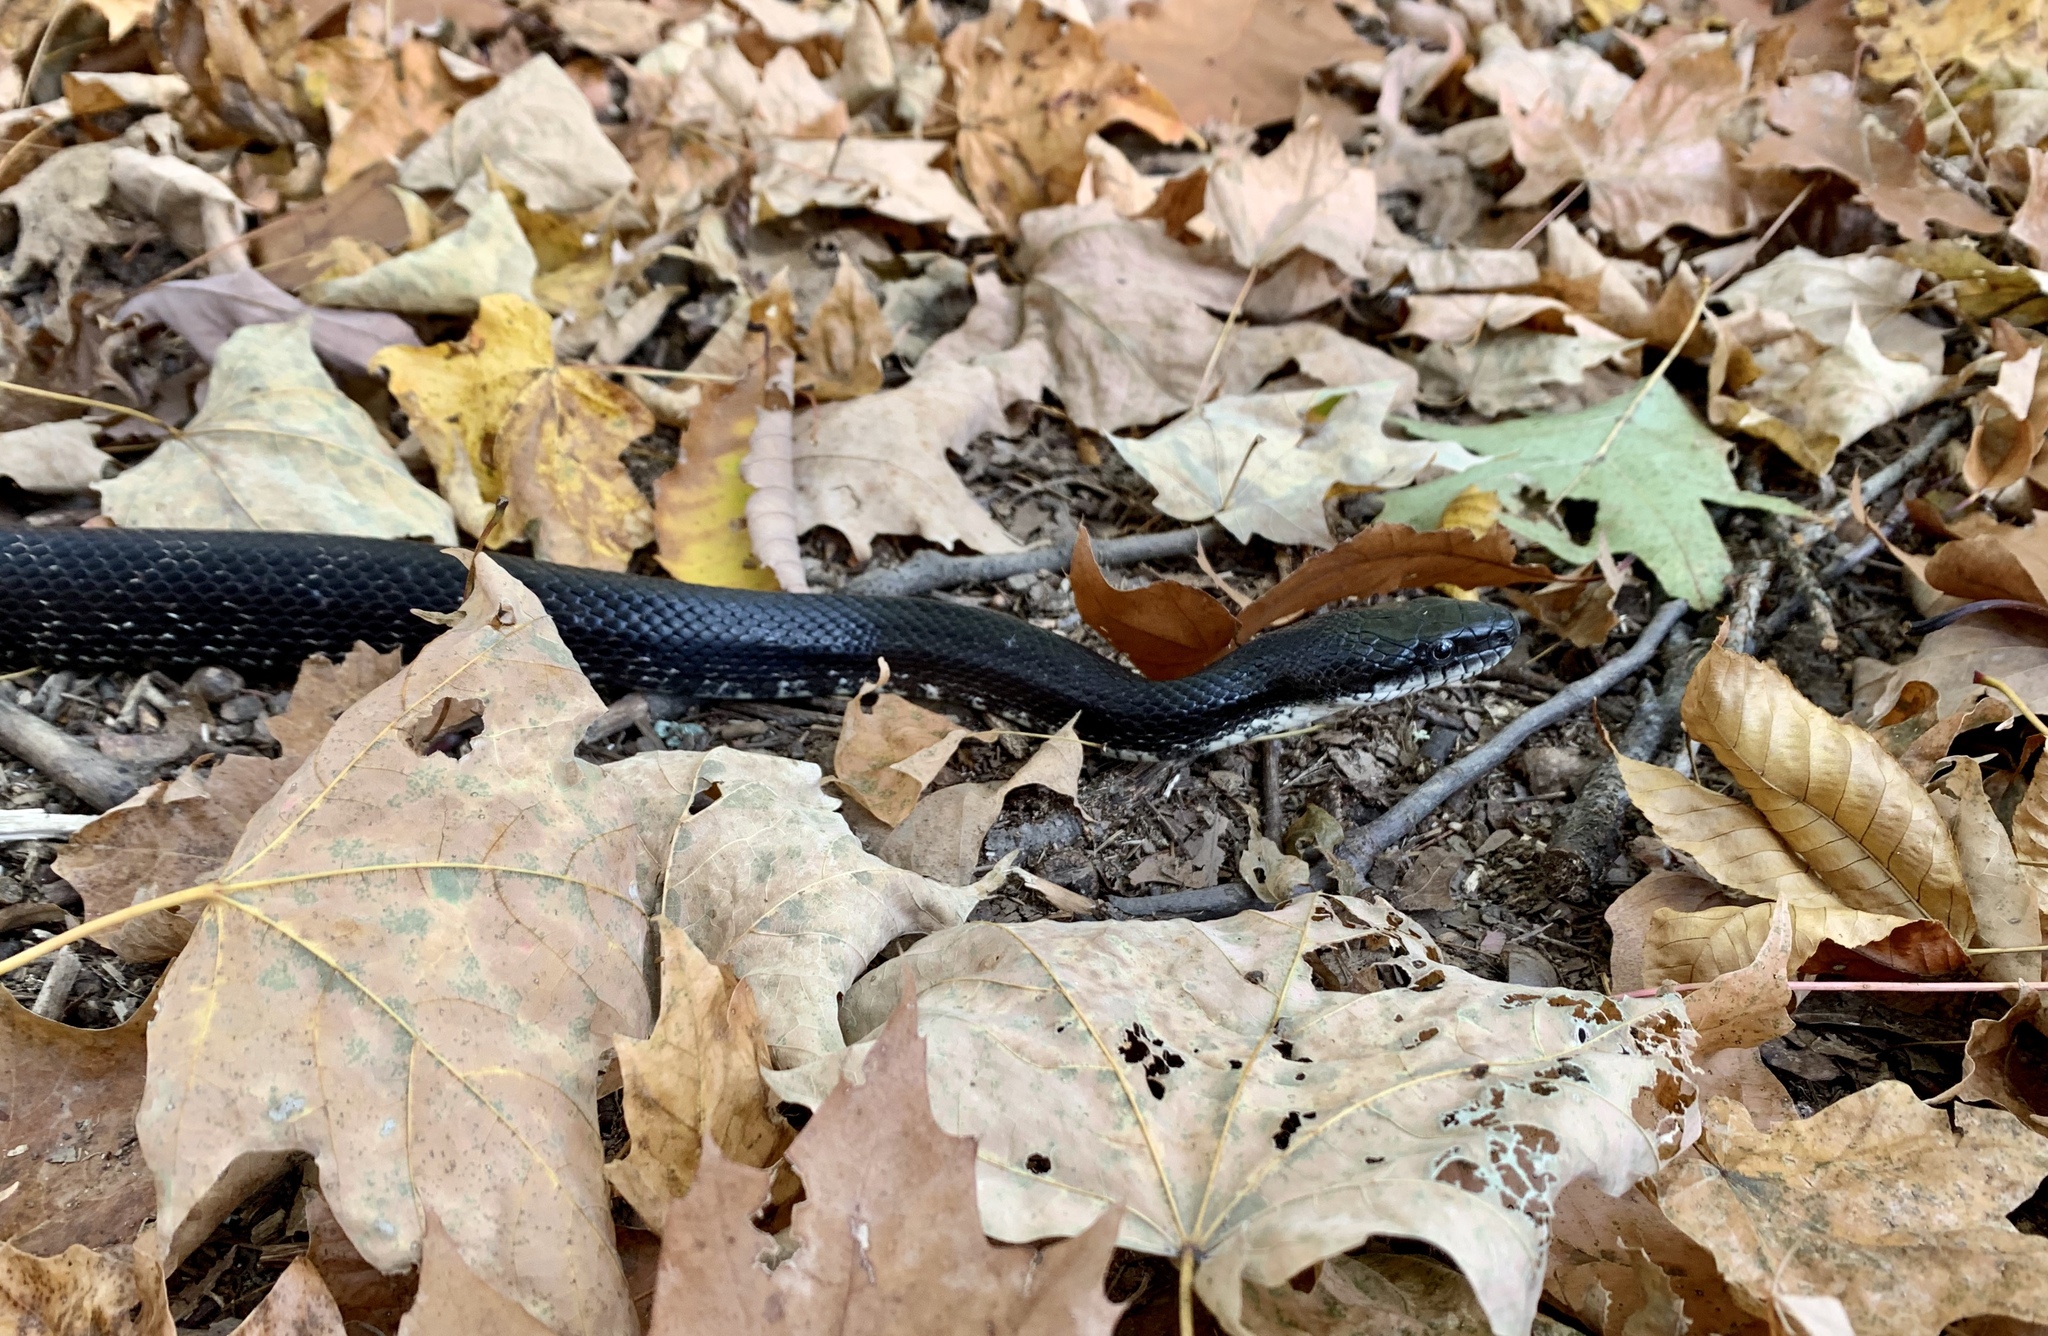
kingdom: Animalia
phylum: Chordata
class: Squamata
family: Colubridae
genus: Pantherophis
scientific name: Pantherophis alleghaniensis
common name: Eastern rat snake
